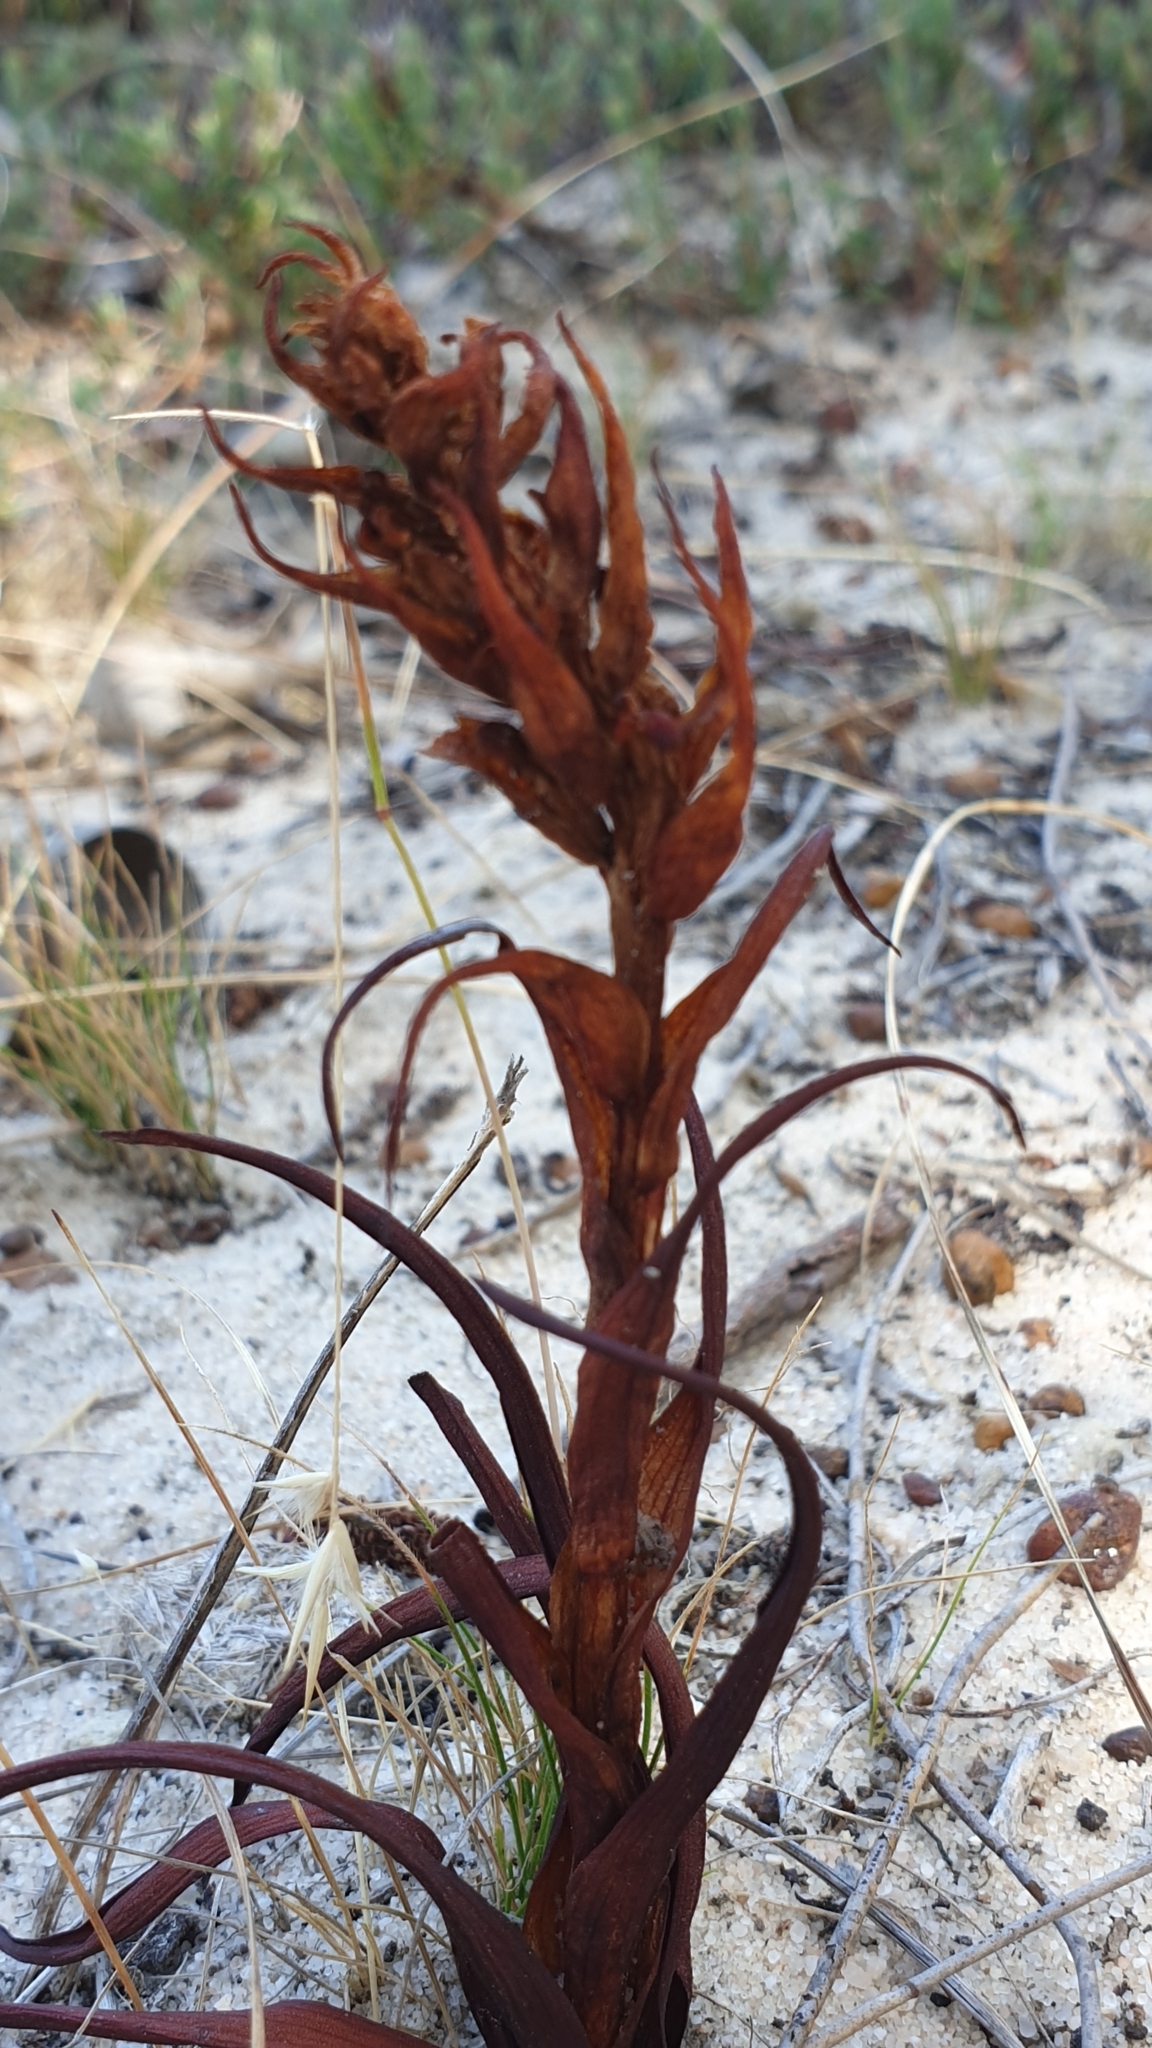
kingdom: Plantae
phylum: Tracheophyta
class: Liliopsida
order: Asparagales
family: Orchidaceae
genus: Disa
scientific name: Disa bracteata
